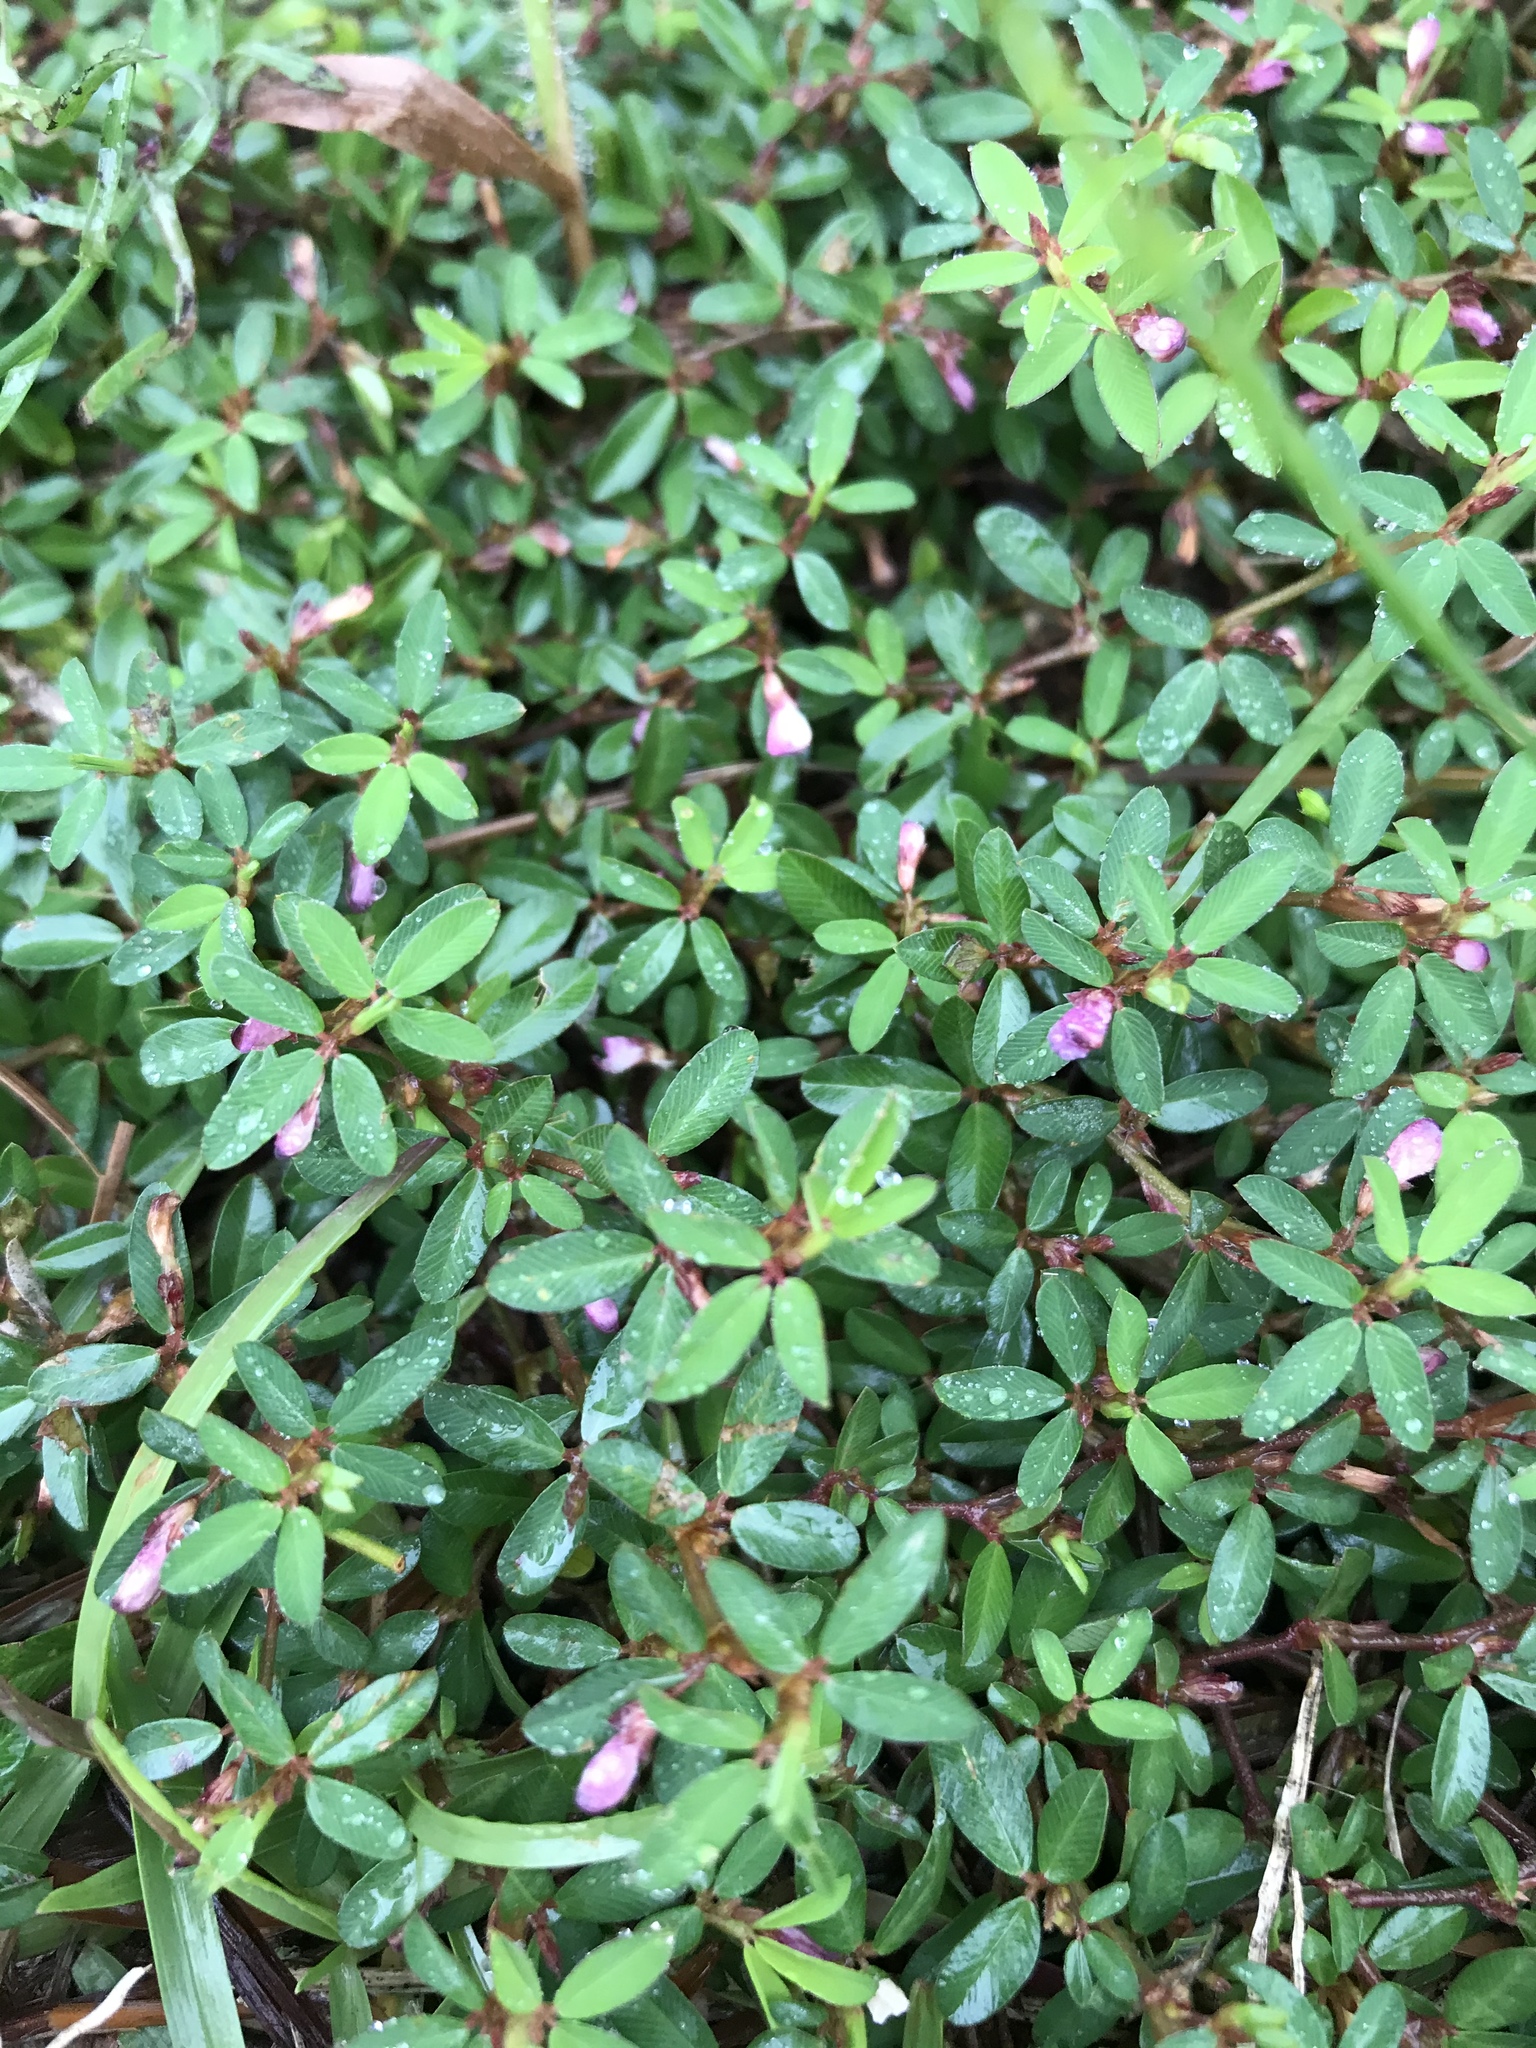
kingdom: Plantae
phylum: Tracheophyta
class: Magnoliopsida
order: Fabales
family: Fabaceae
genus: Kummerowia
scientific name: Kummerowia striata
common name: Japanese clover
